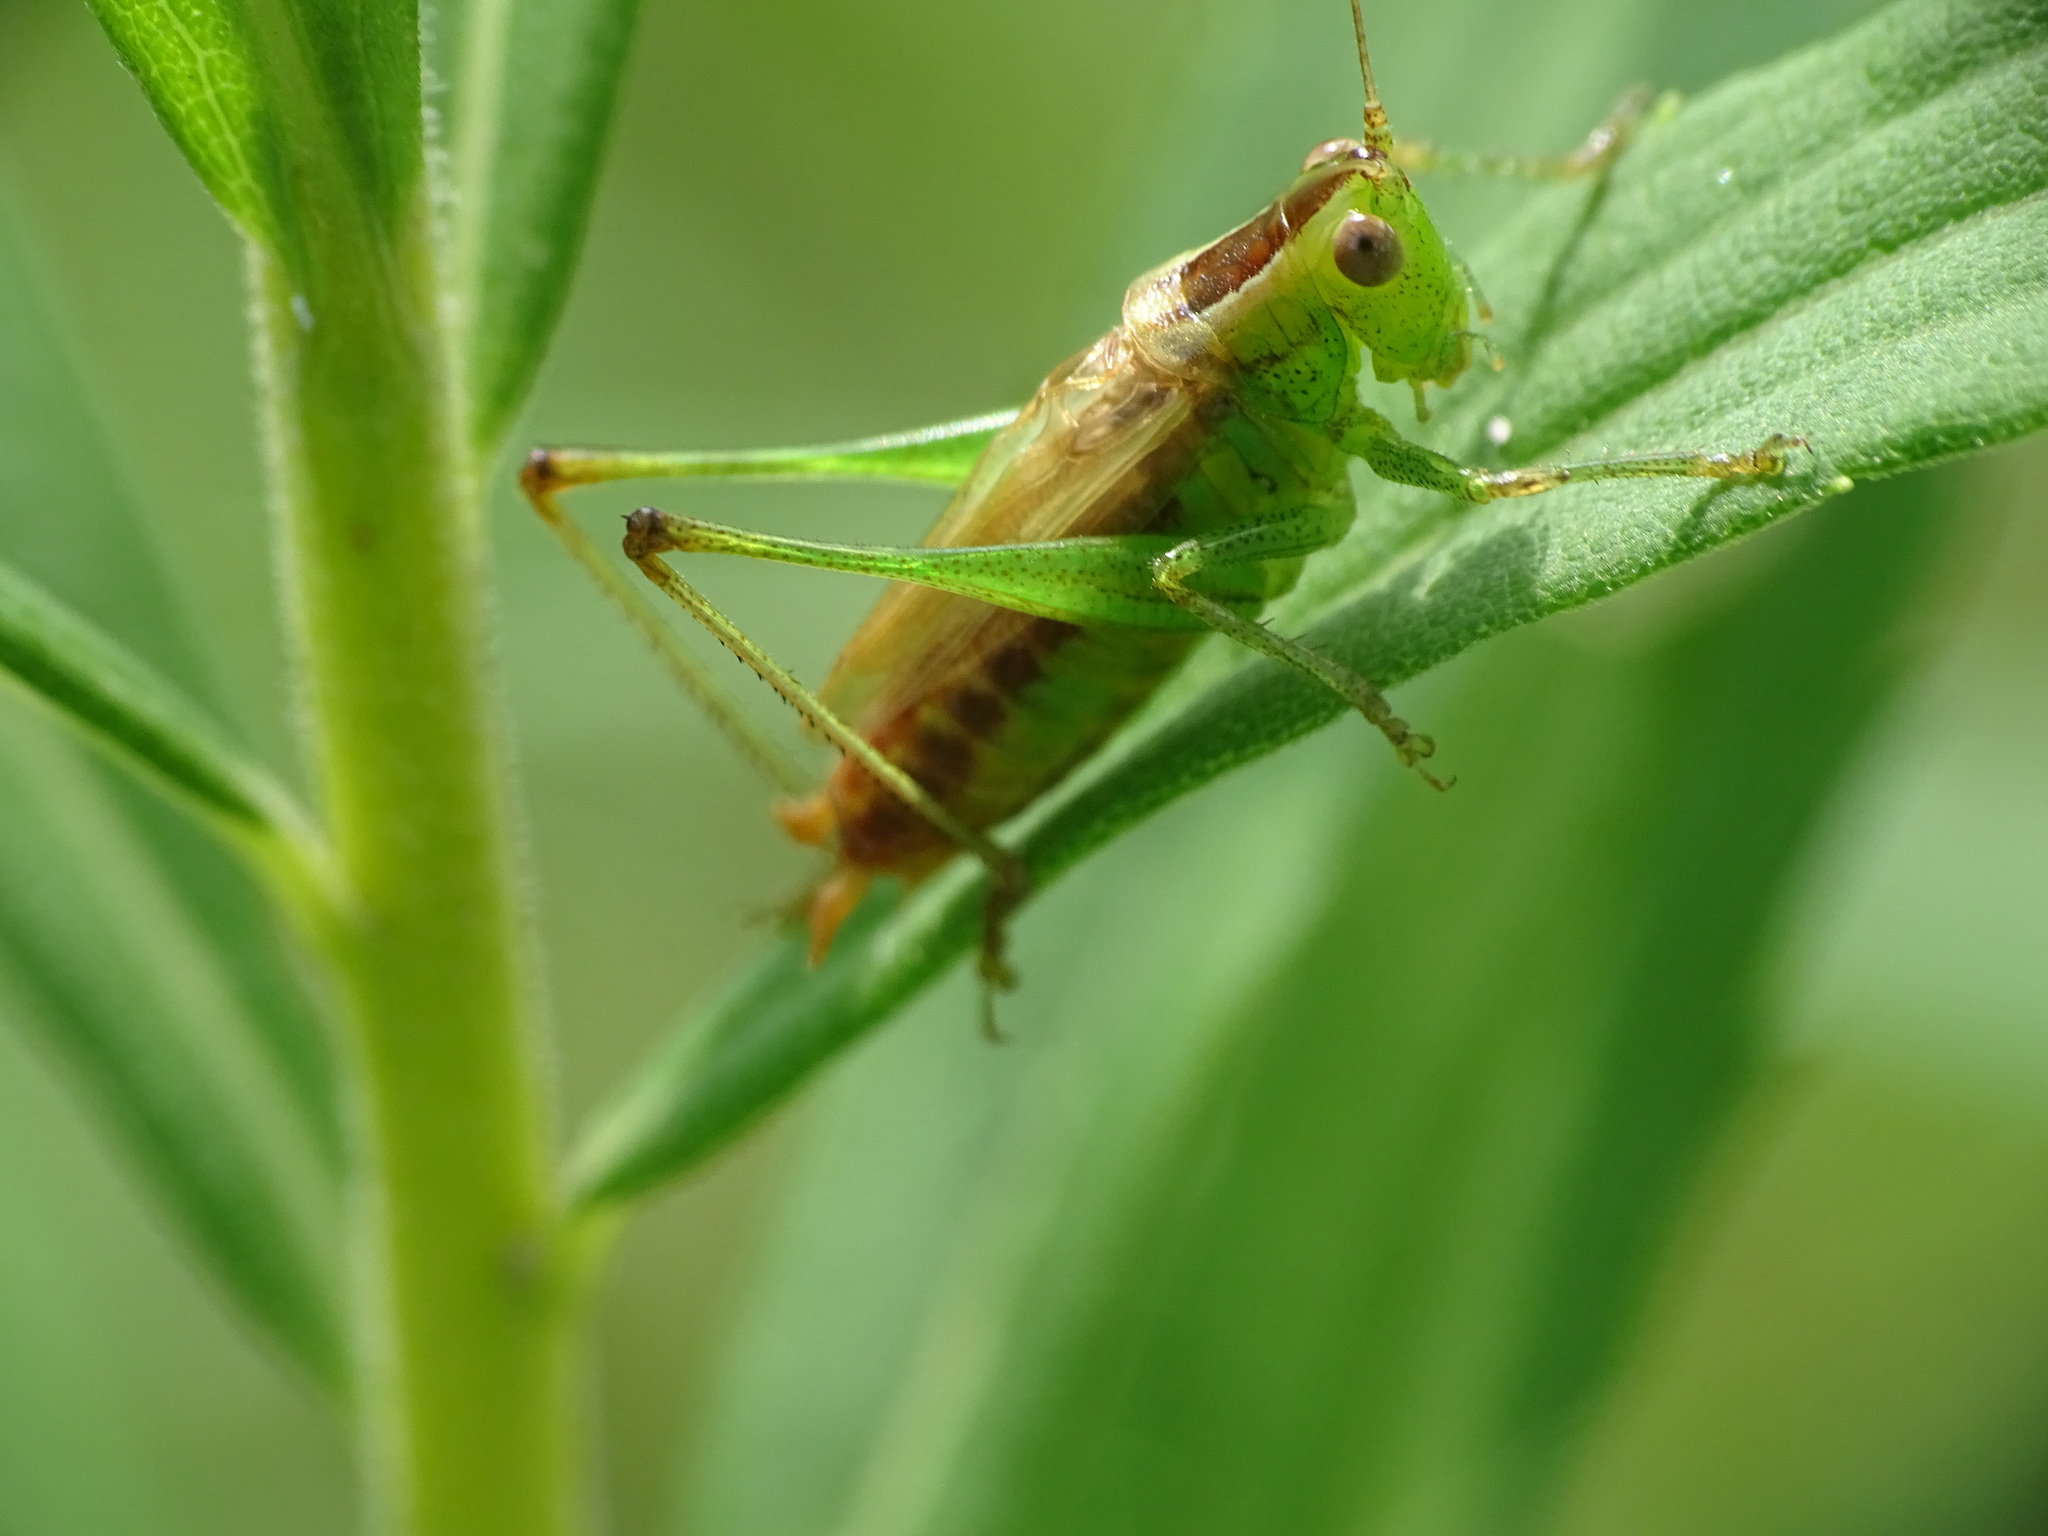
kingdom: Animalia
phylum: Arthropoda
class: Insecta
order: Orthoptera
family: Tettigoniidae
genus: Conocephalus
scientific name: Conocephalus brevipennis
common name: Short-winged meadow katydid
